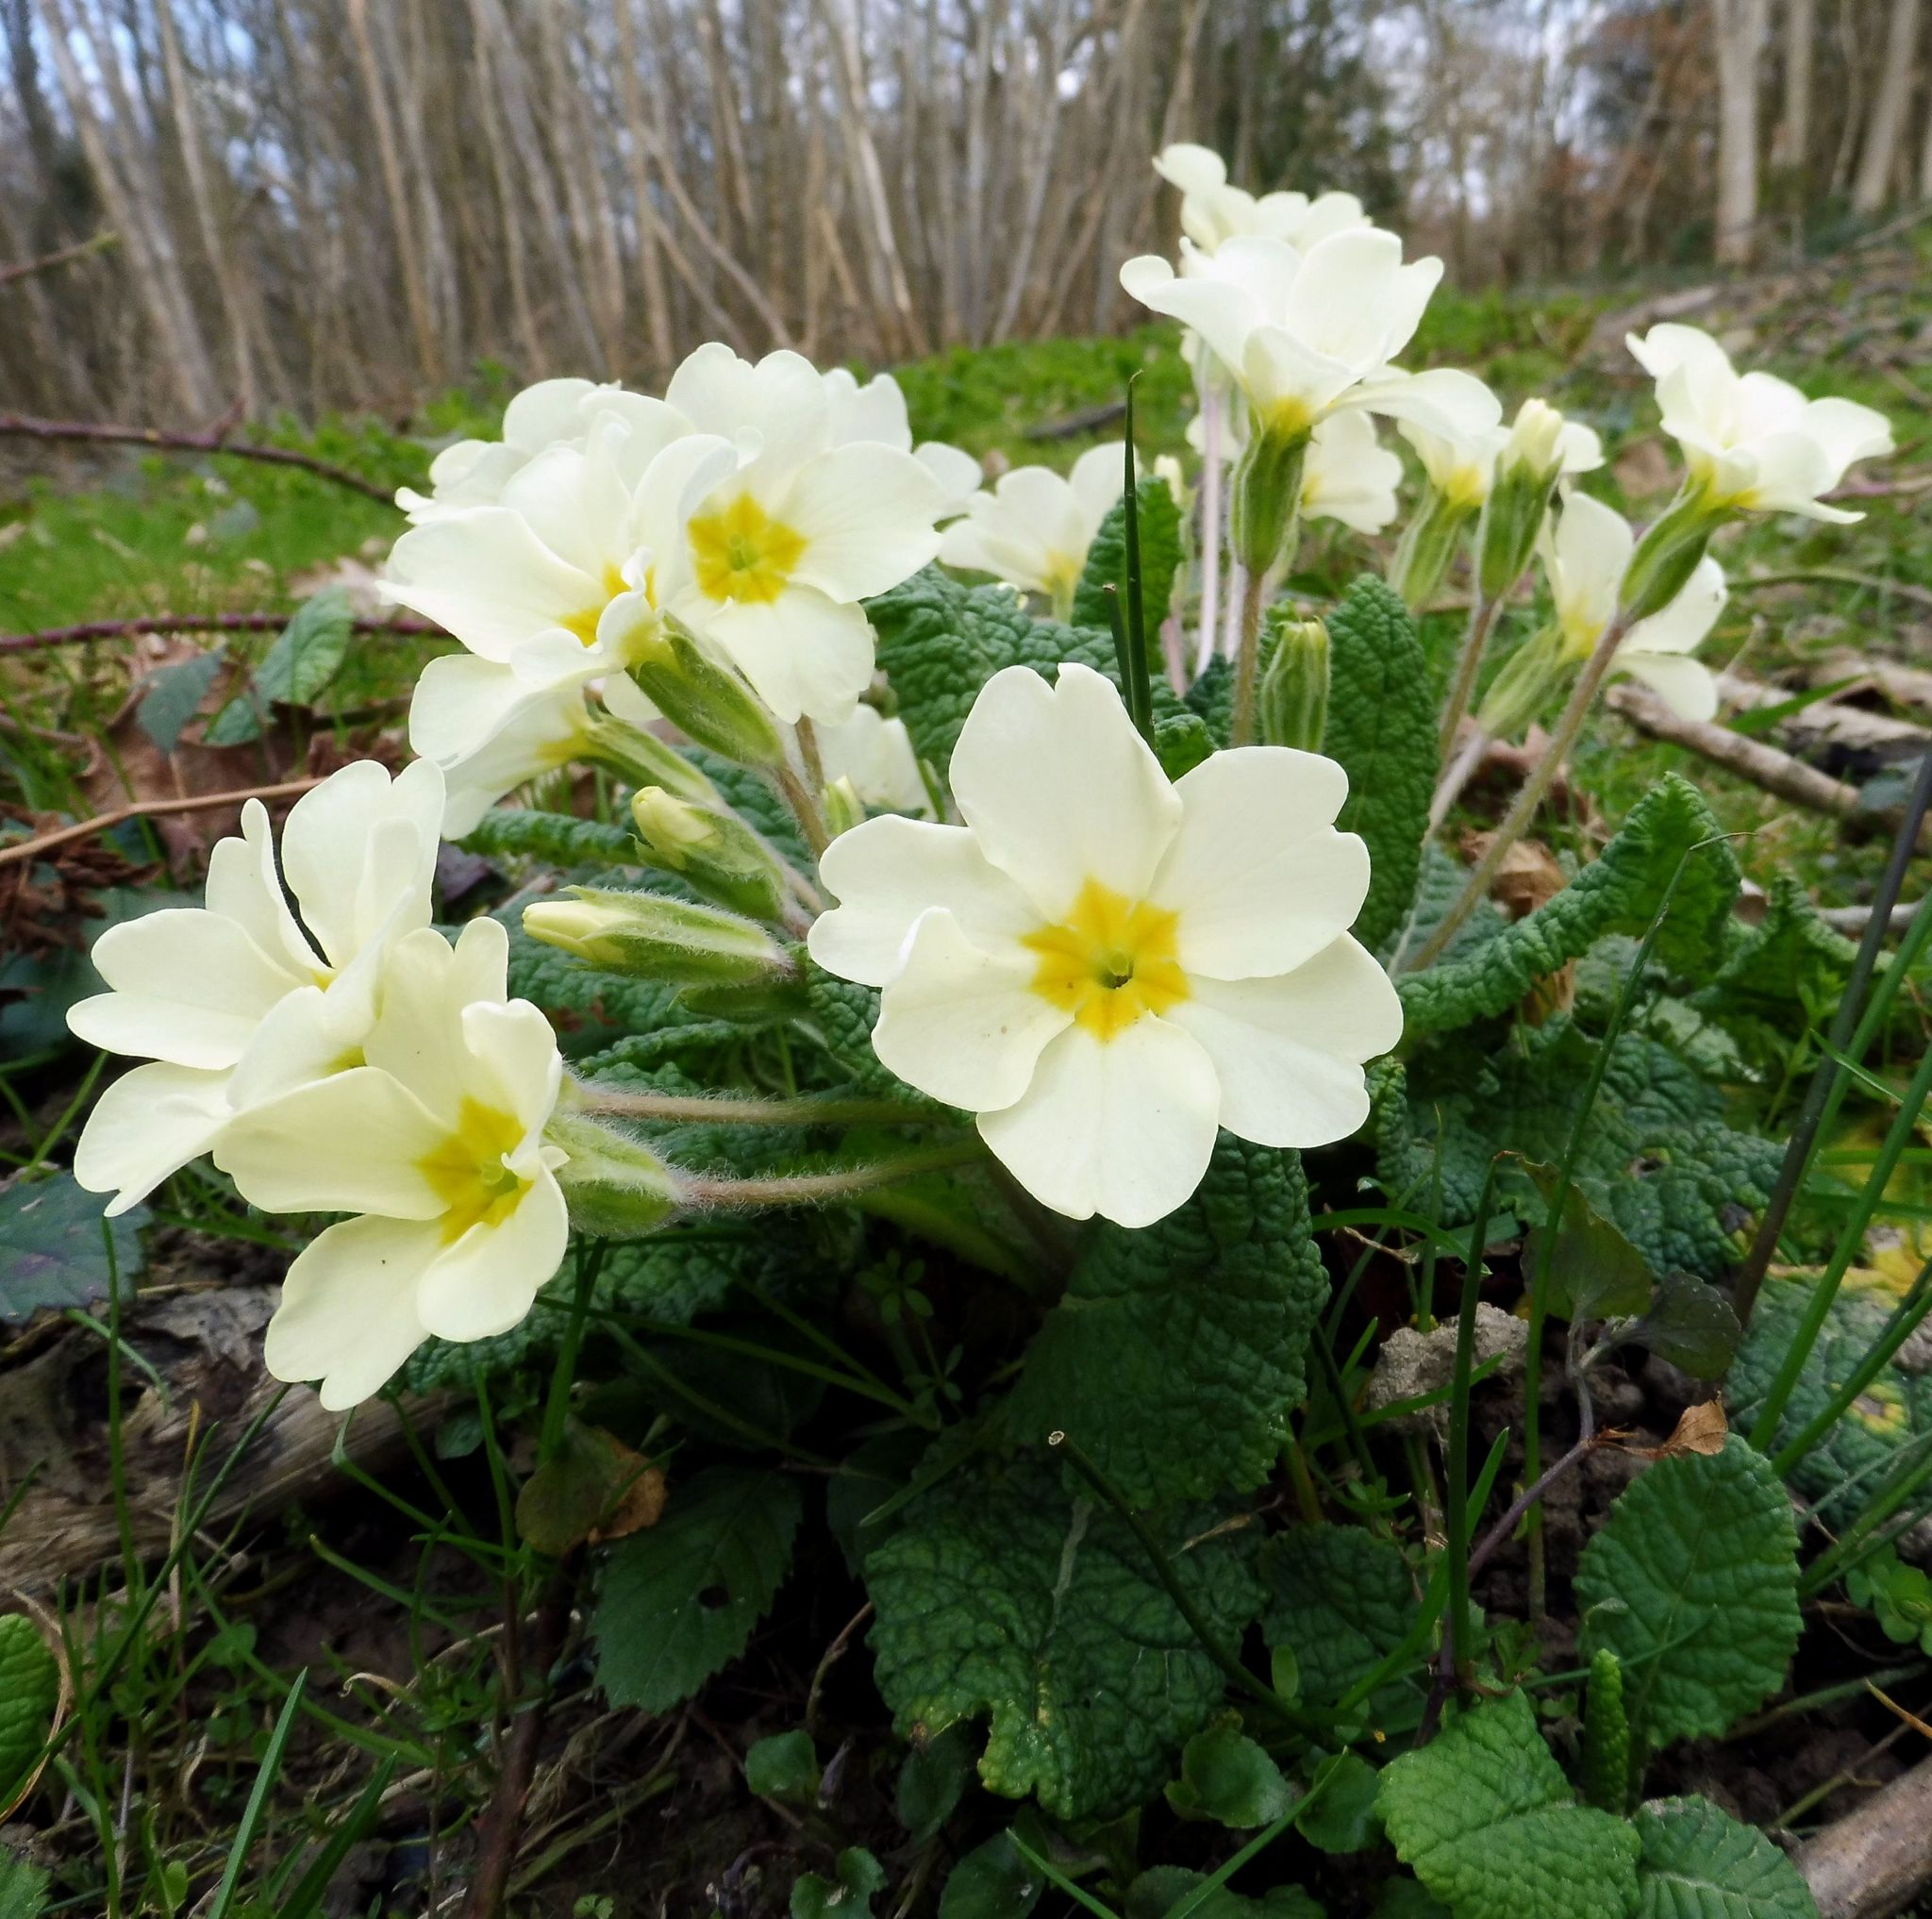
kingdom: Plantae
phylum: Tracheophyta
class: Magnoliopsida
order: Ericales
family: Primulaceae
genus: Primula
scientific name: Primula vulgaris
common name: Primrose
